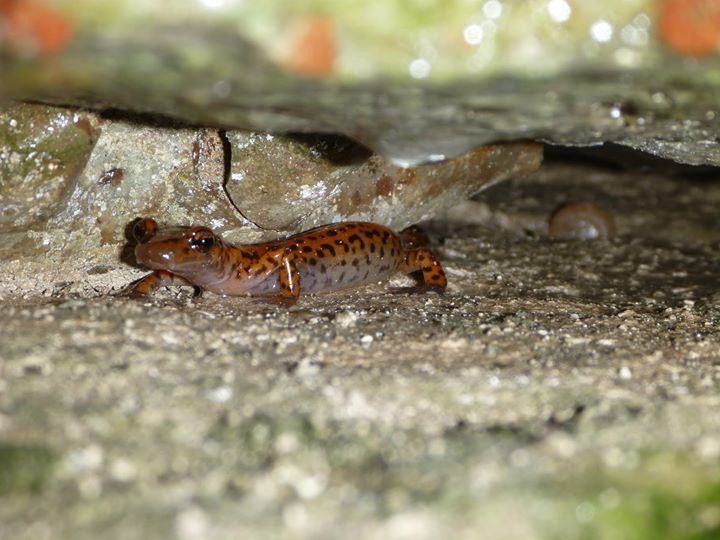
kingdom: Animalia
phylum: Chordata
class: Amphibia
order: Caudata
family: Plethodontidae
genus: Eurycea
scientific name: Eurycea lucifuga
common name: Cave salamander
